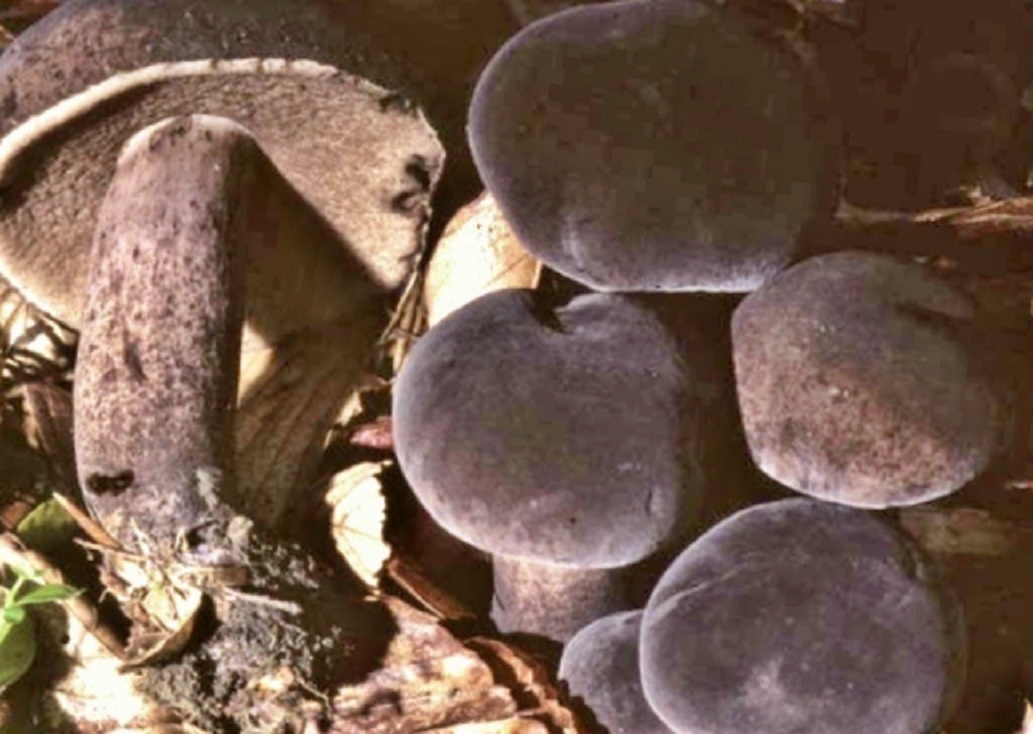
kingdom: Fungi
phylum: Basidiomycota
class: Agaricomycetes
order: Boletales
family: Boletaceae
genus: Tylopilus
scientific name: Tylopilus alboater
